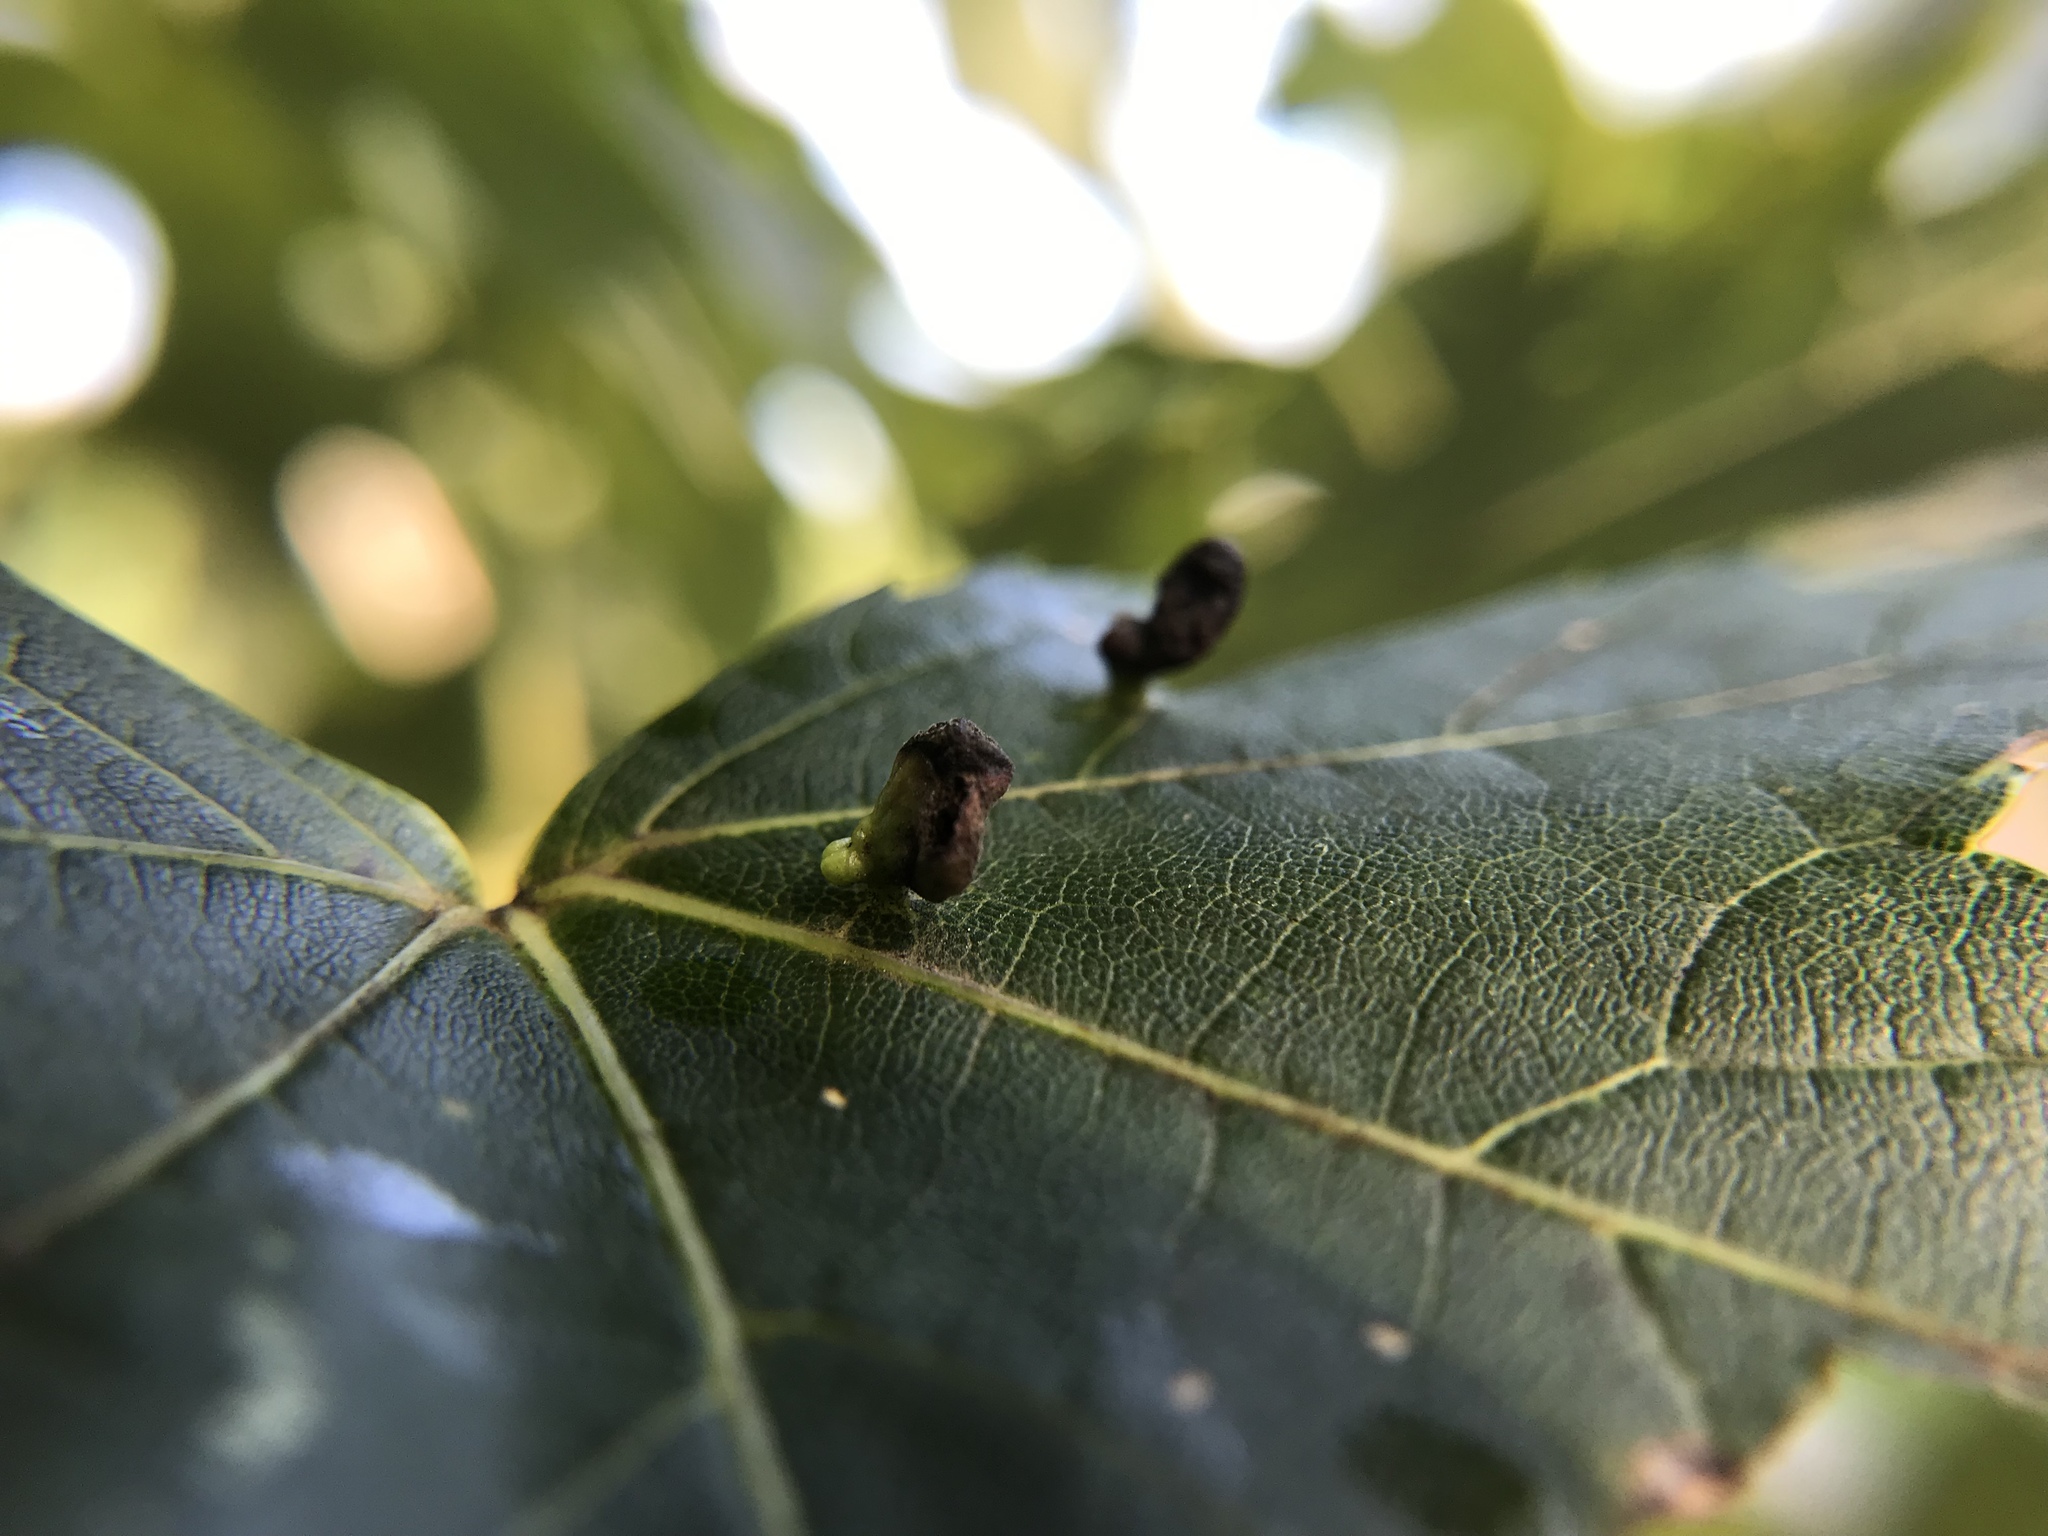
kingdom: Animalia
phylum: Arthropoda
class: Arachnida
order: Trombidiformes
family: Eriophyidae
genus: Vasates
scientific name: Vasates quadripedes
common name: Maple bladder gall mite
